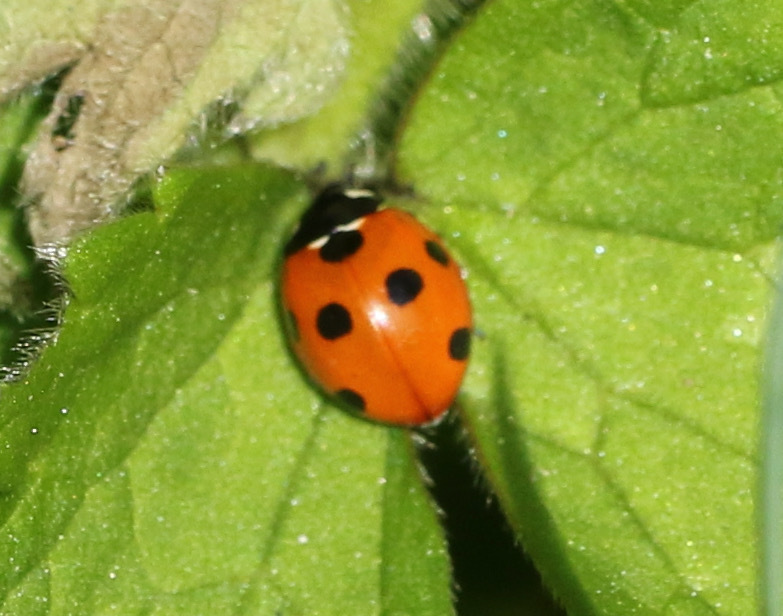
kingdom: Animalia
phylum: Arthropoda
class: Insecta
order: Coleoptera
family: Coccinellidae
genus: Coccinella
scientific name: Coccinella septempunctata
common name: Sevenspotted lady beetle
